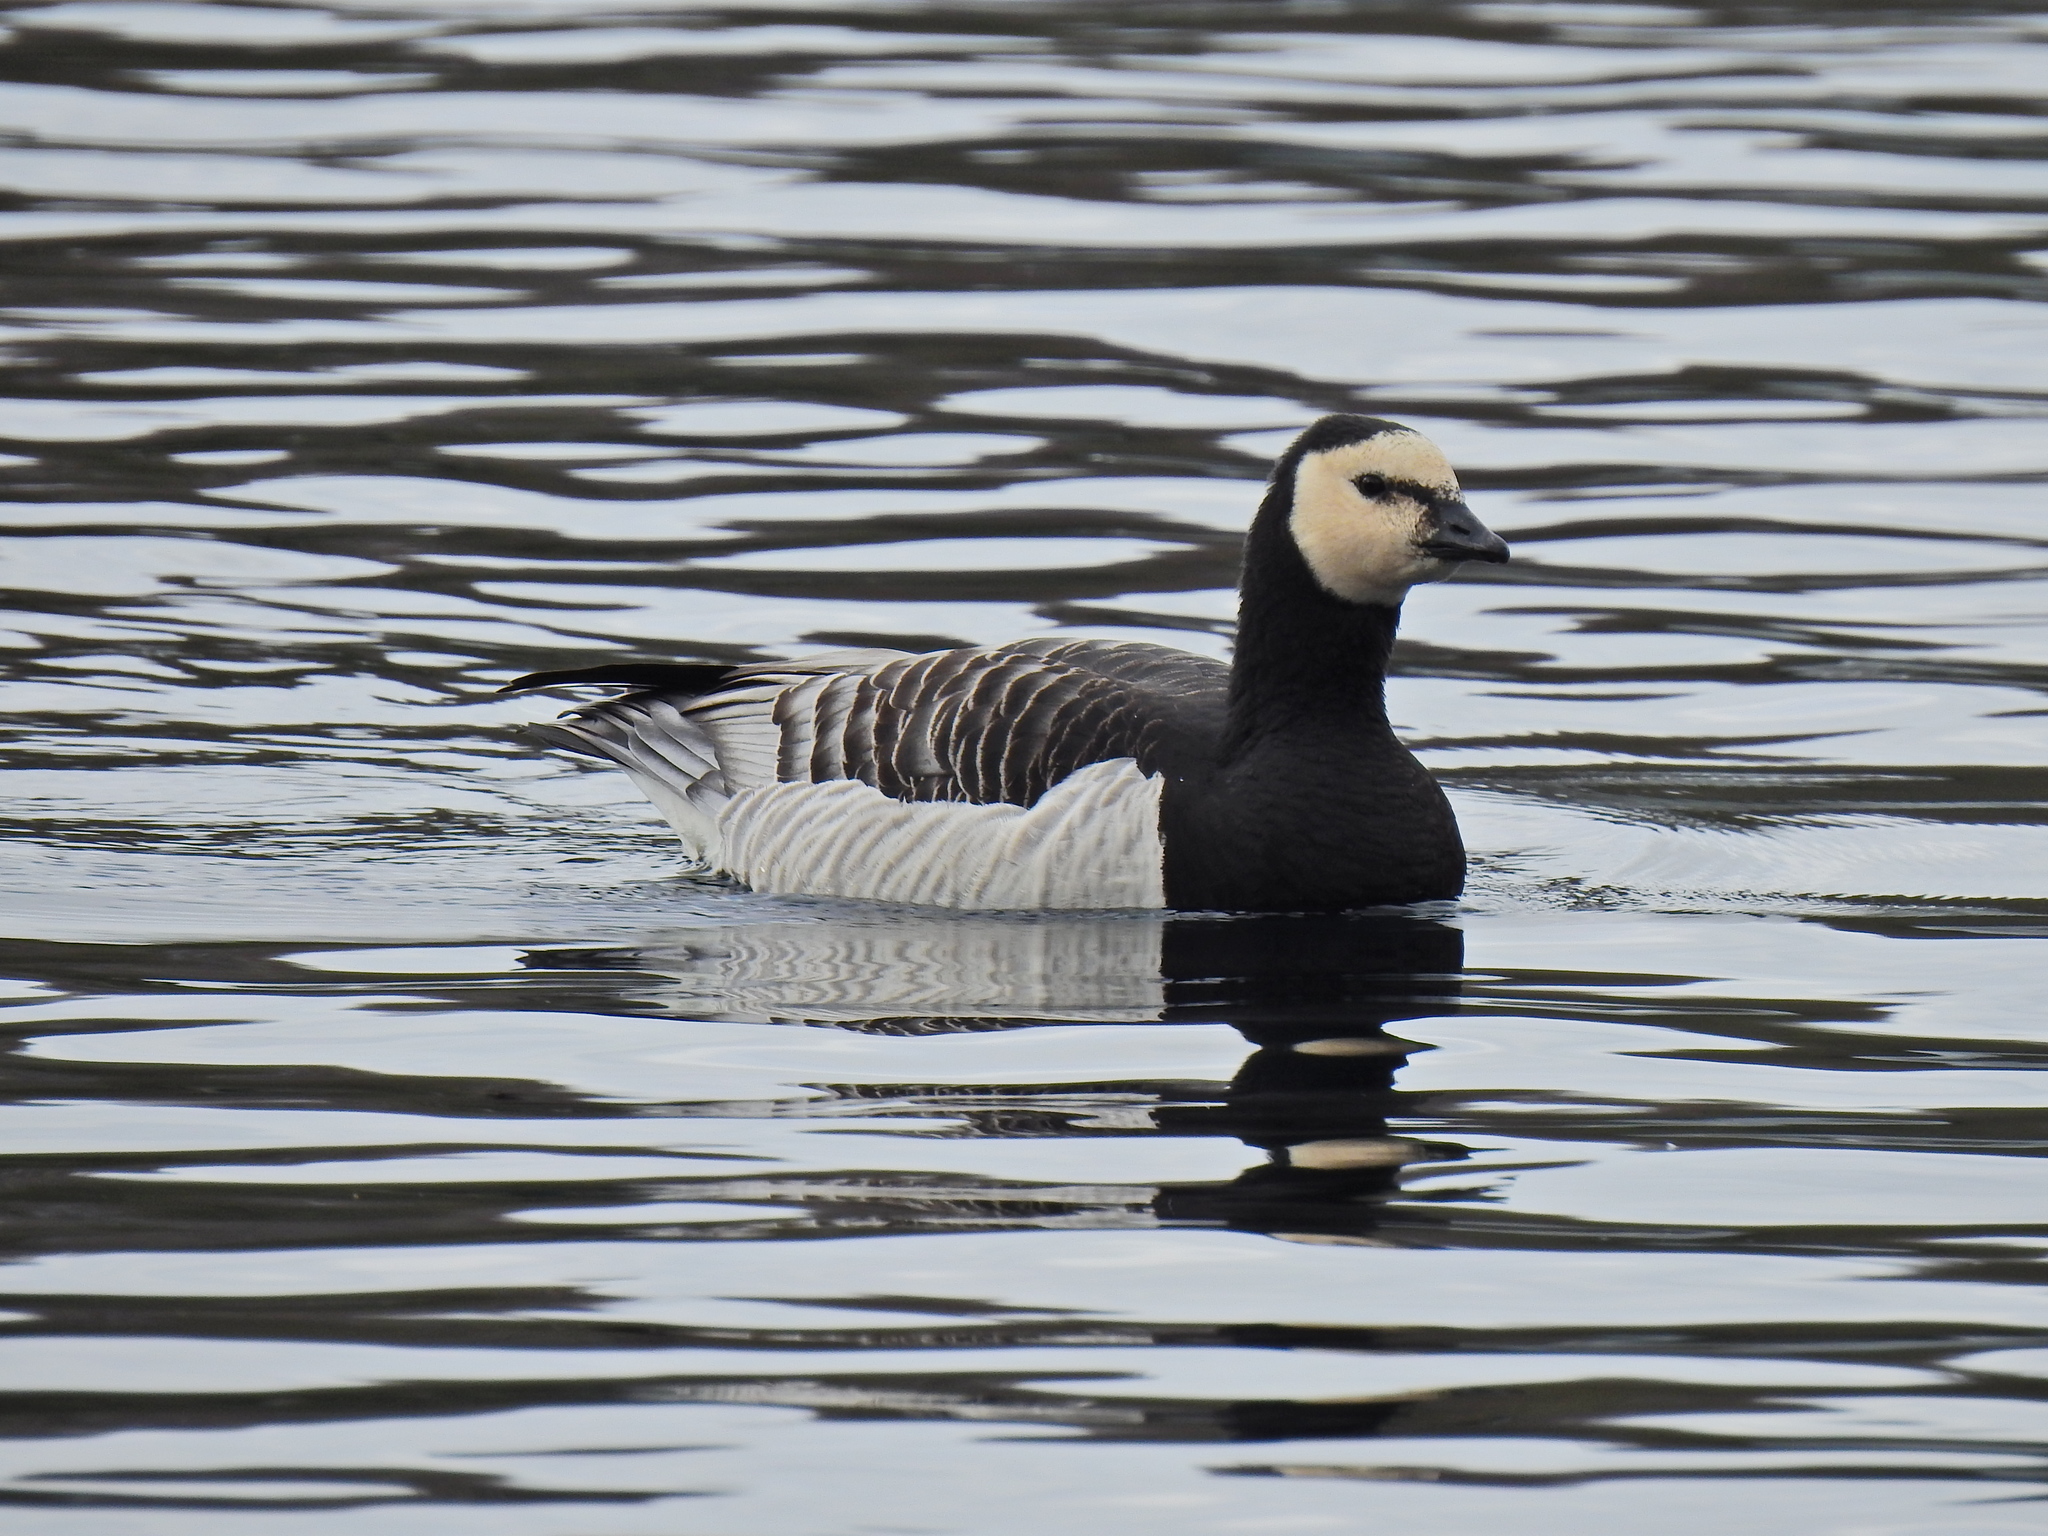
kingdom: Animalia
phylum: Chordata
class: Aves
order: Anseriformes
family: Anatidae
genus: Branta
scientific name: Branta leucopsis
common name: Barnacle goose
